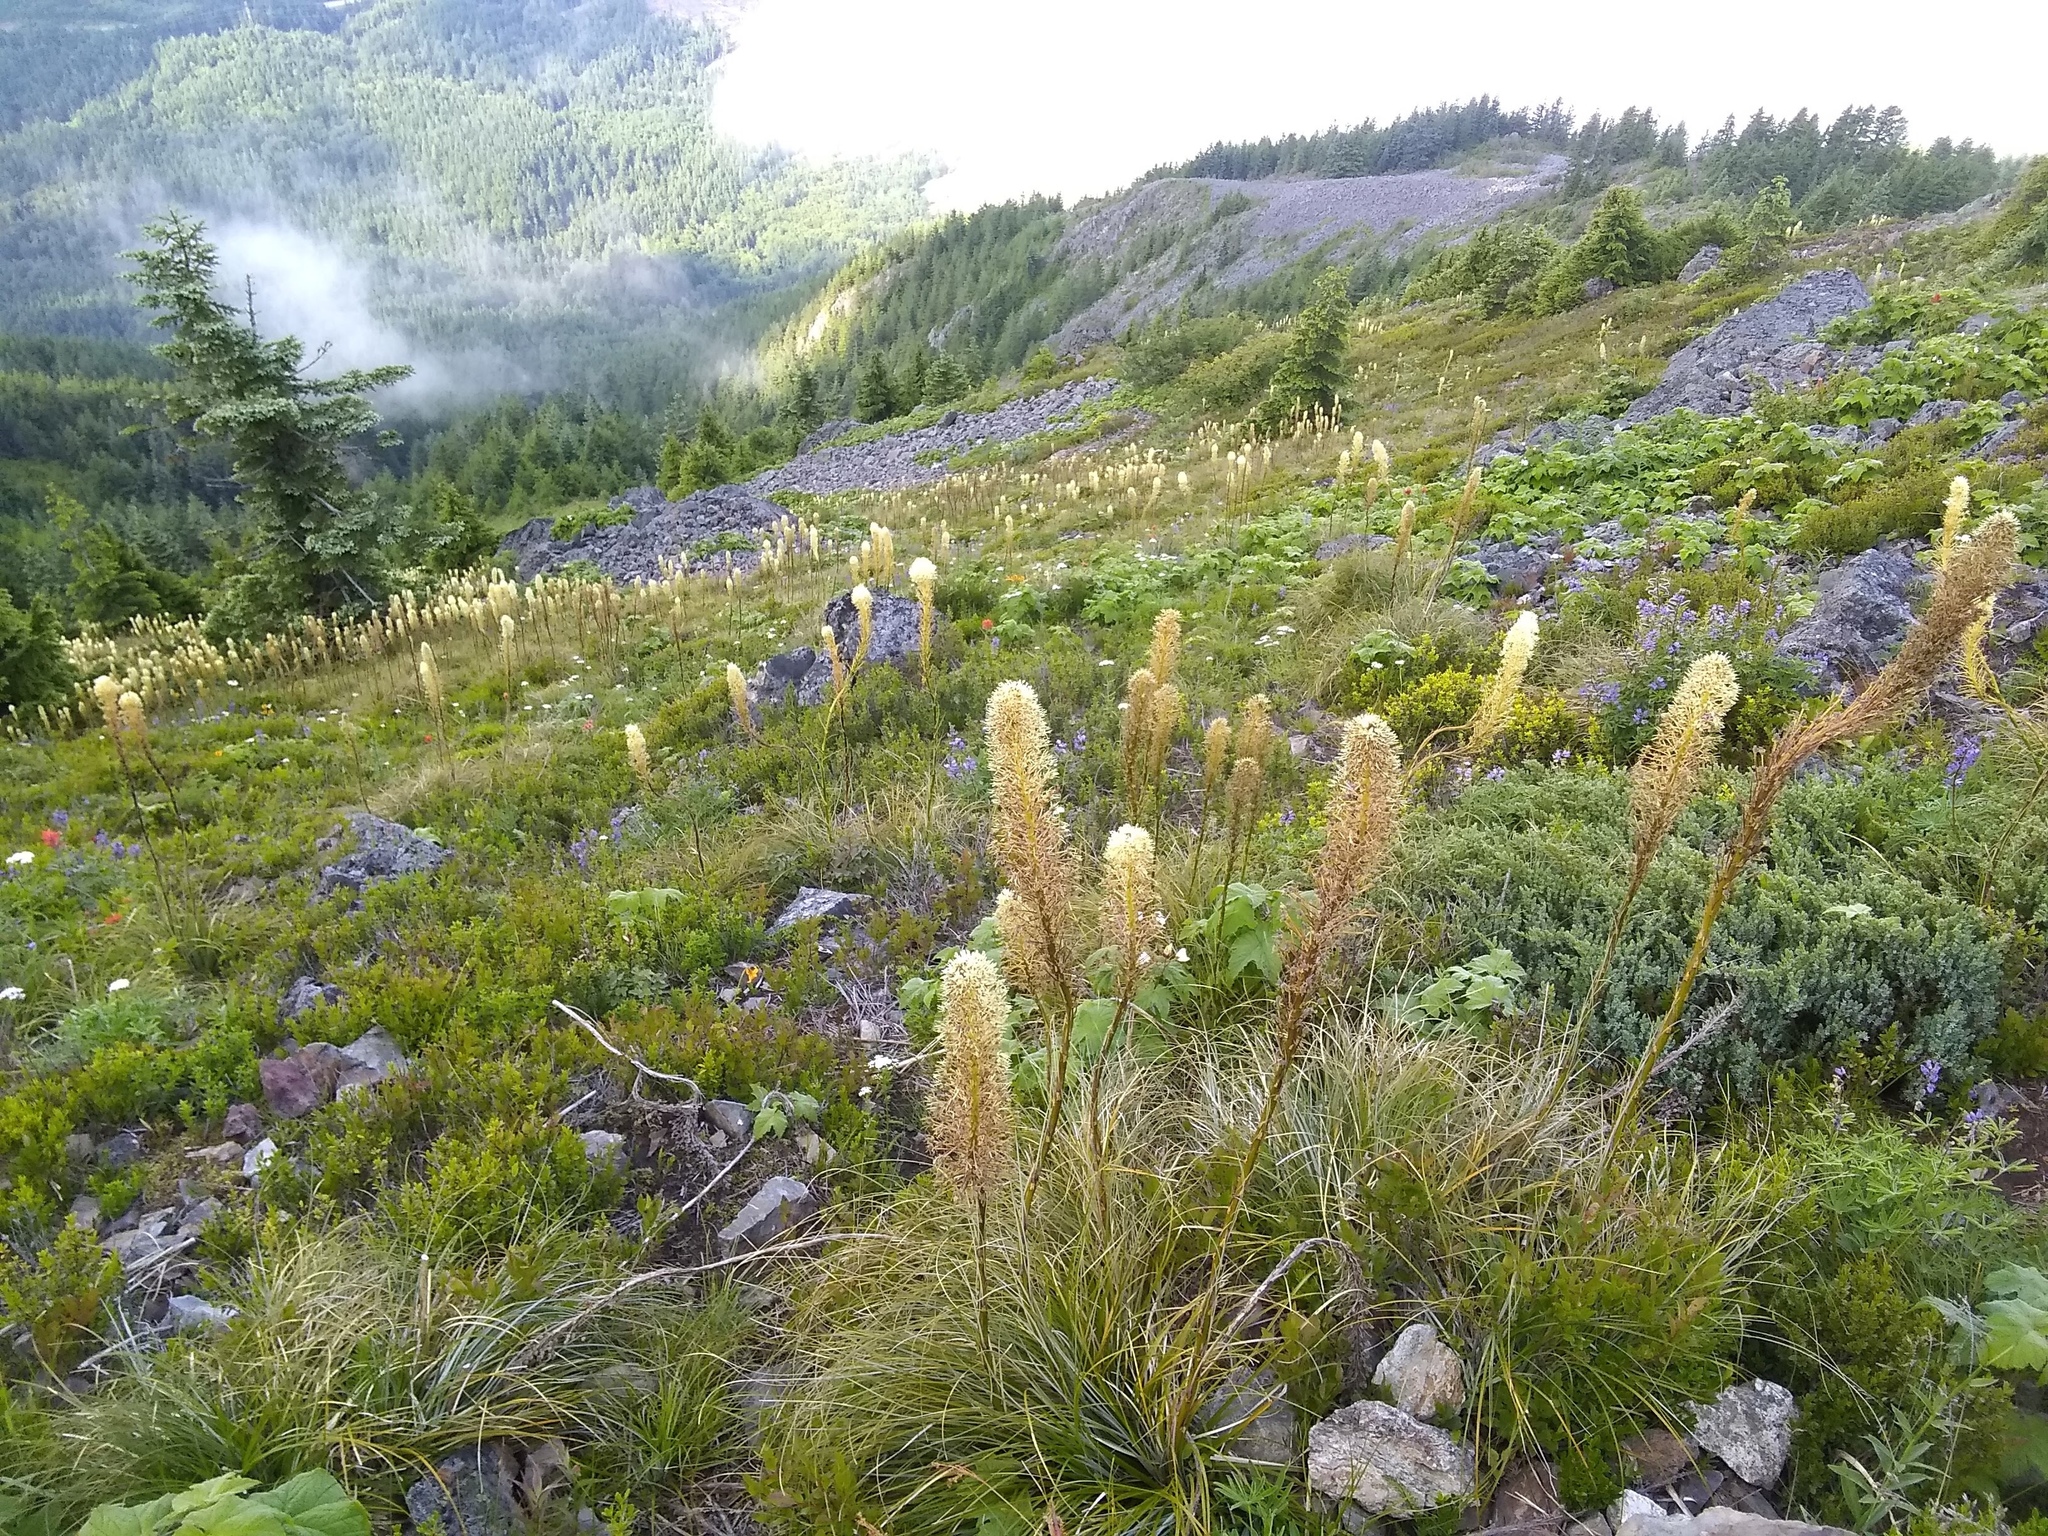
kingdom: Plantae
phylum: Tracheophyta
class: Liliopsida
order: Liliales
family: Melanthiaceae
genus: Xerophyllum
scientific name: Xerophyllum tenax
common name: Bear-grass
